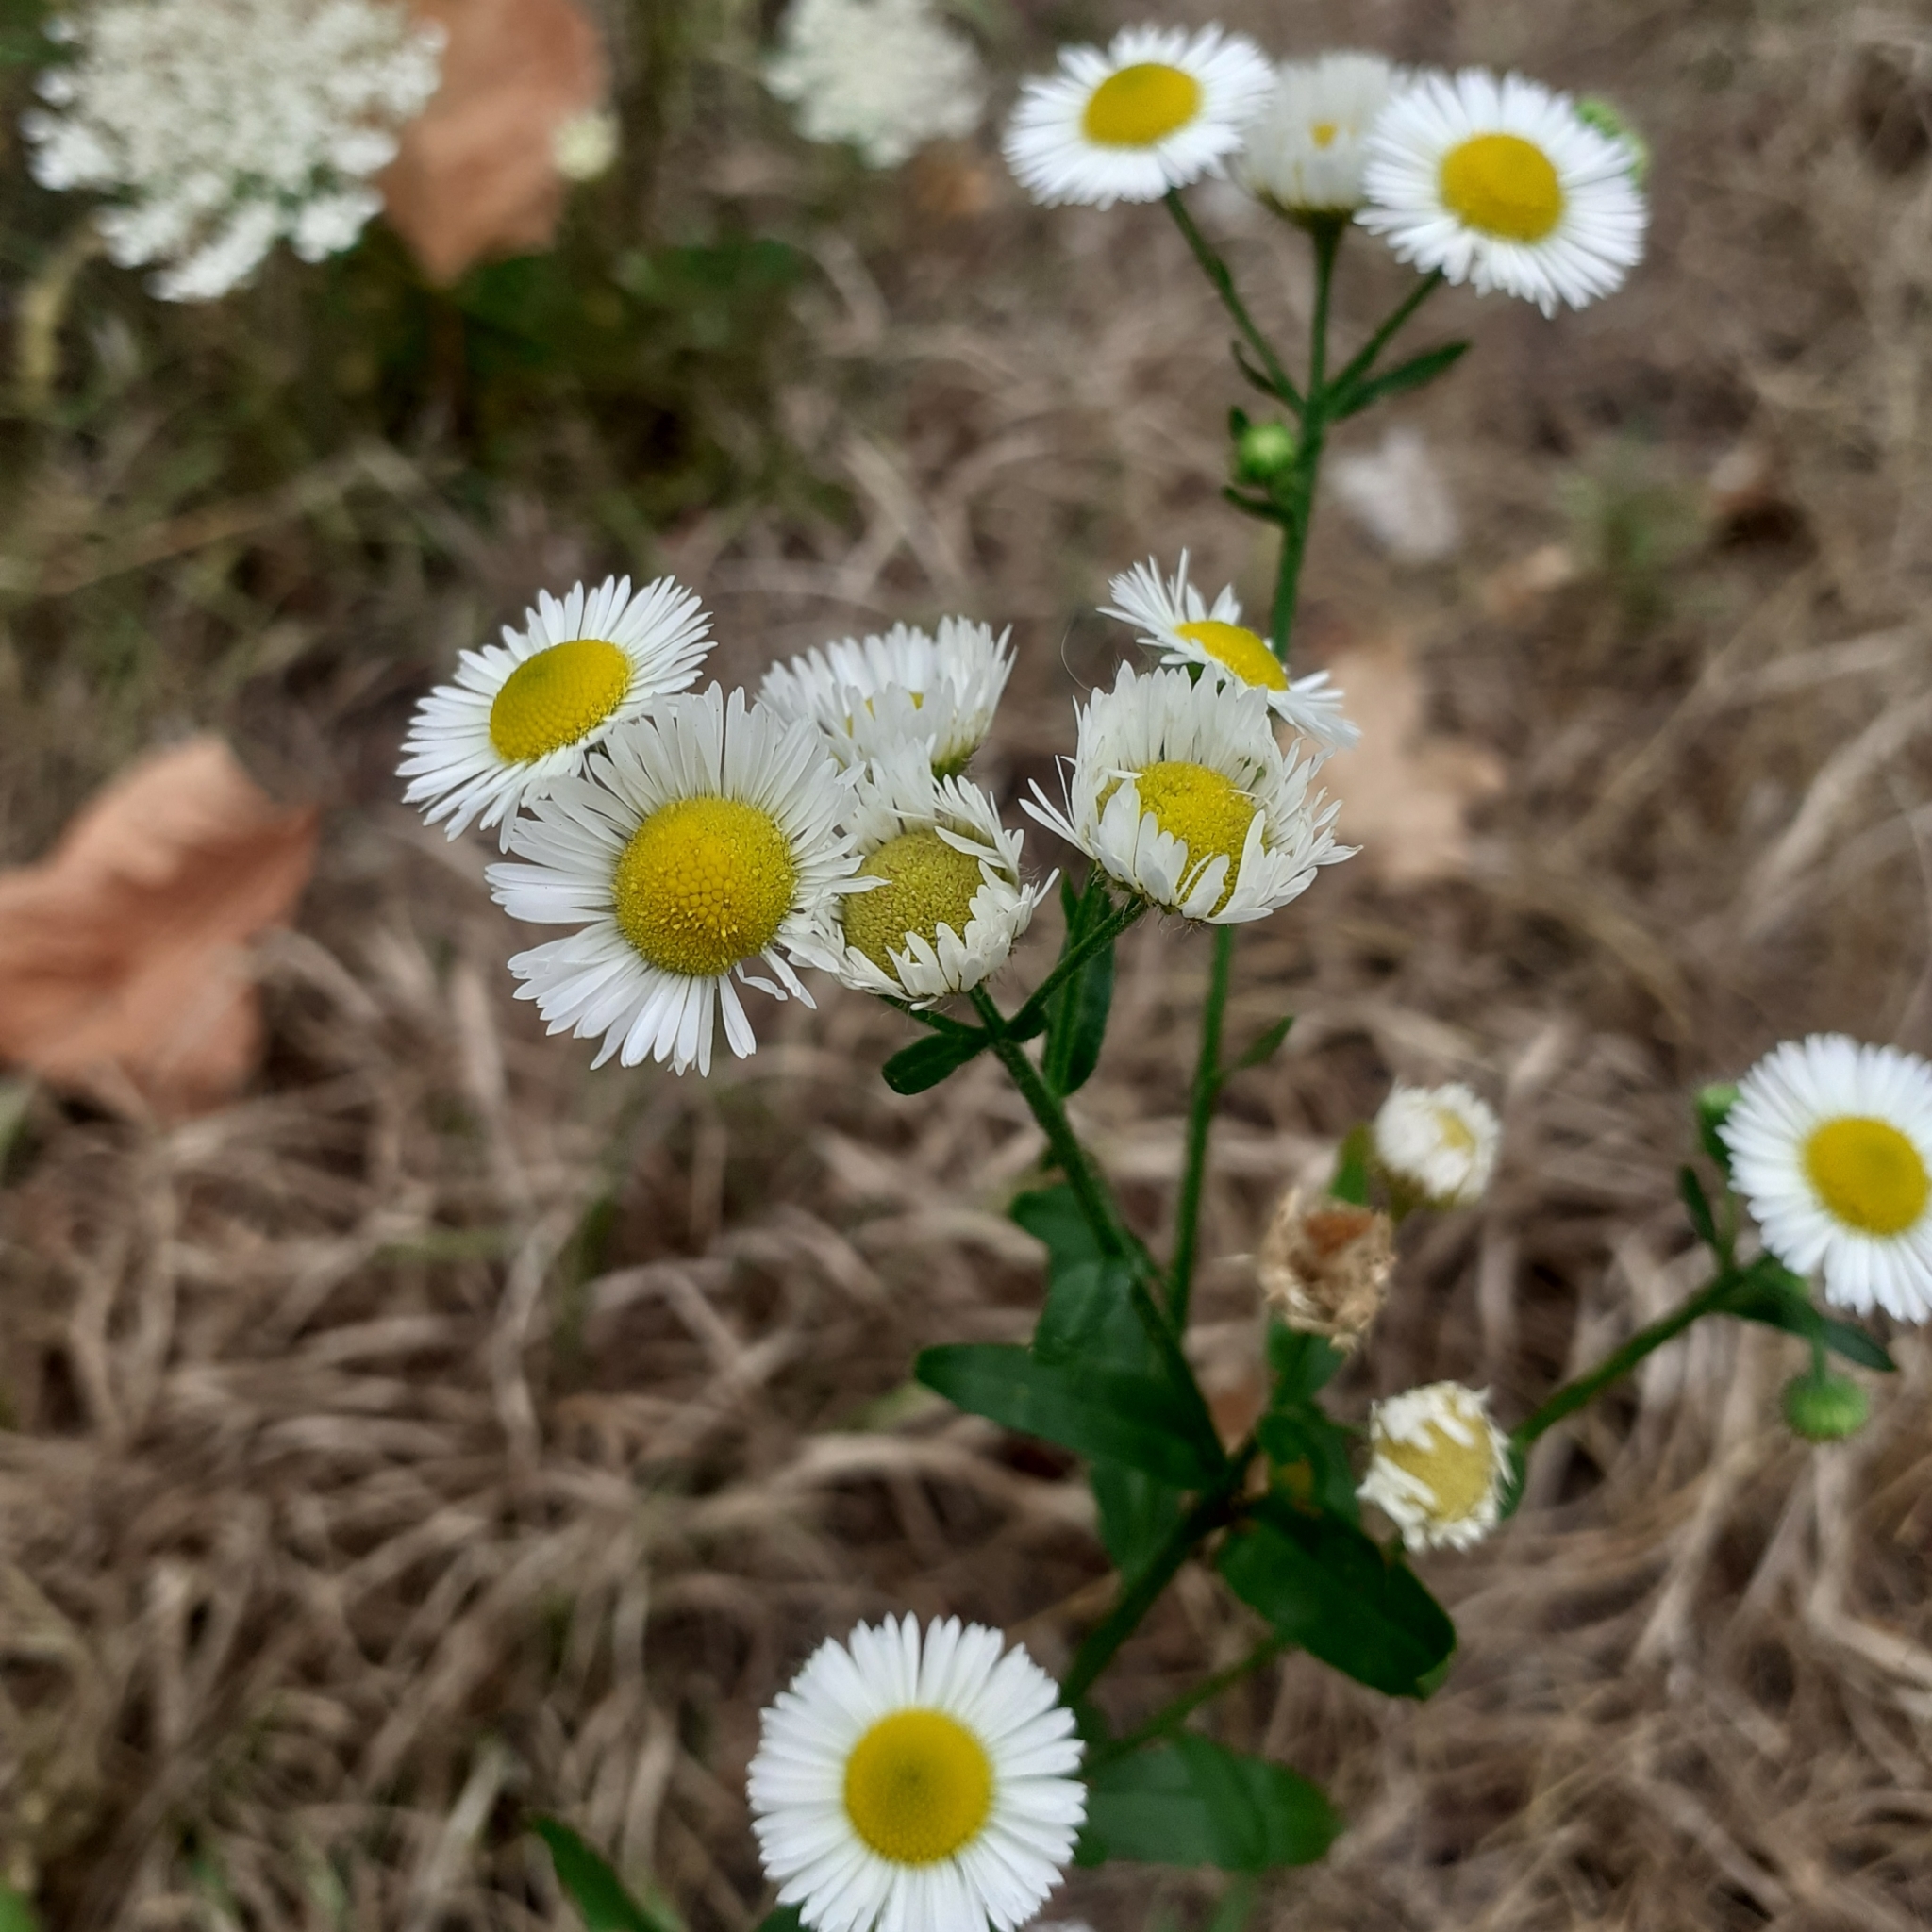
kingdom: Plantae
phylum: Tracheophyta
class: Magnoliopsida
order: Asterales
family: Asteraceae
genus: Erigeron
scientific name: Erigeron annuus
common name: Tall fleabane
